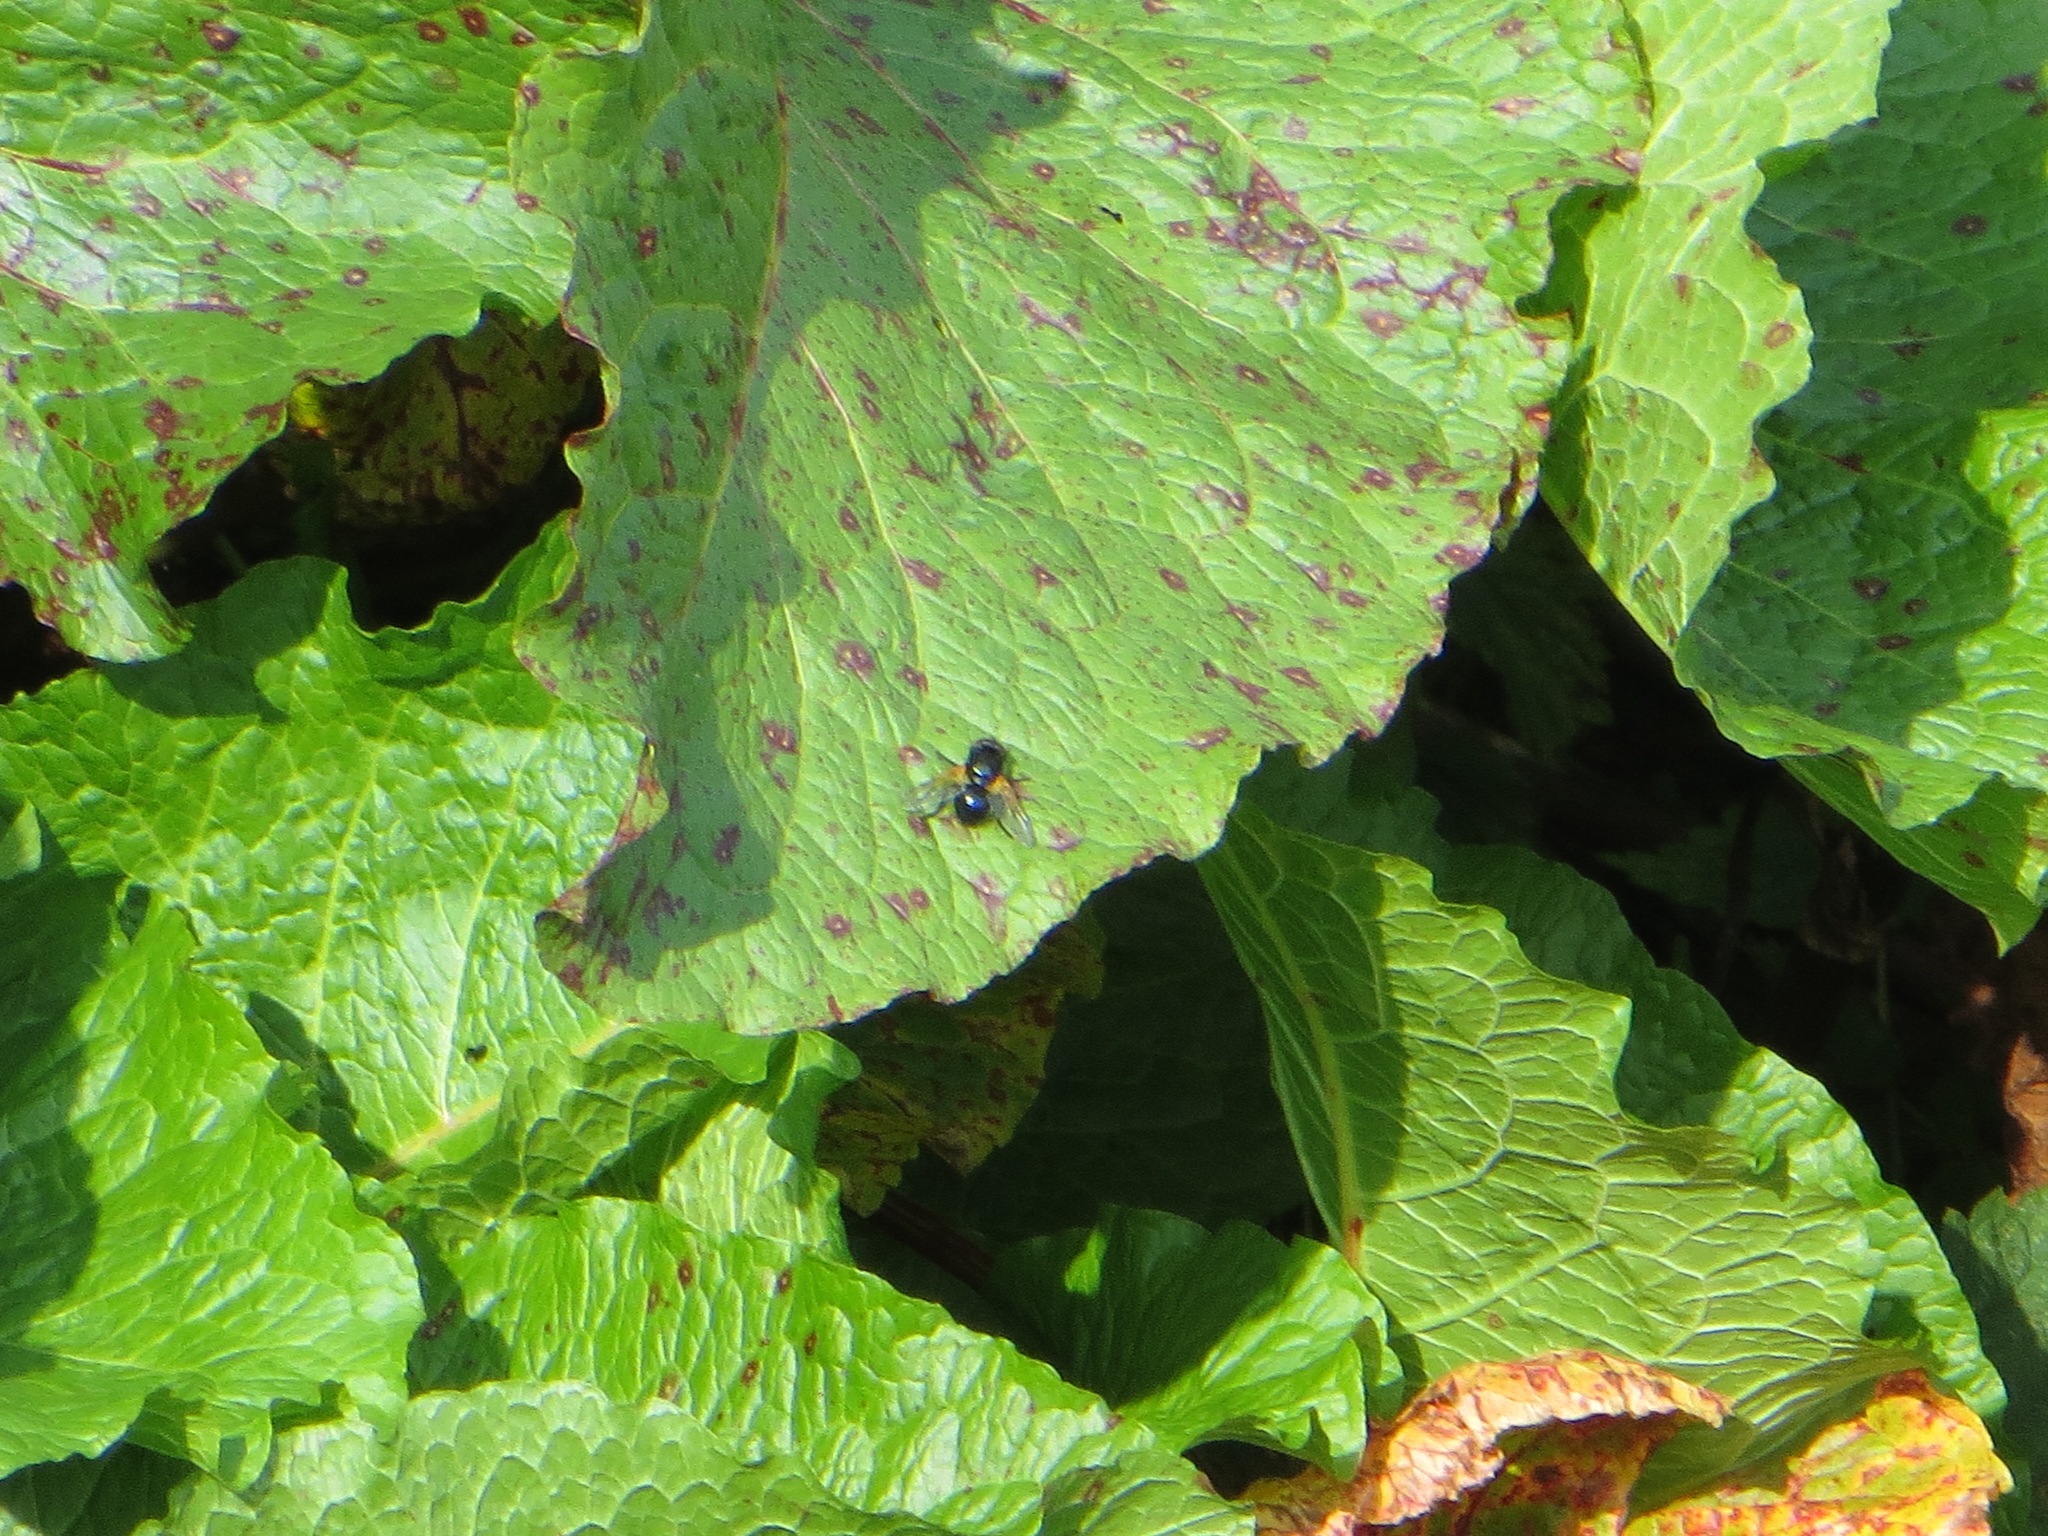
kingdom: Animalia
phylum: Arthropoda
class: Insecta
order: Diptera
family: Muscidae
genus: Mesembrina
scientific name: Mesembrina meridiana
